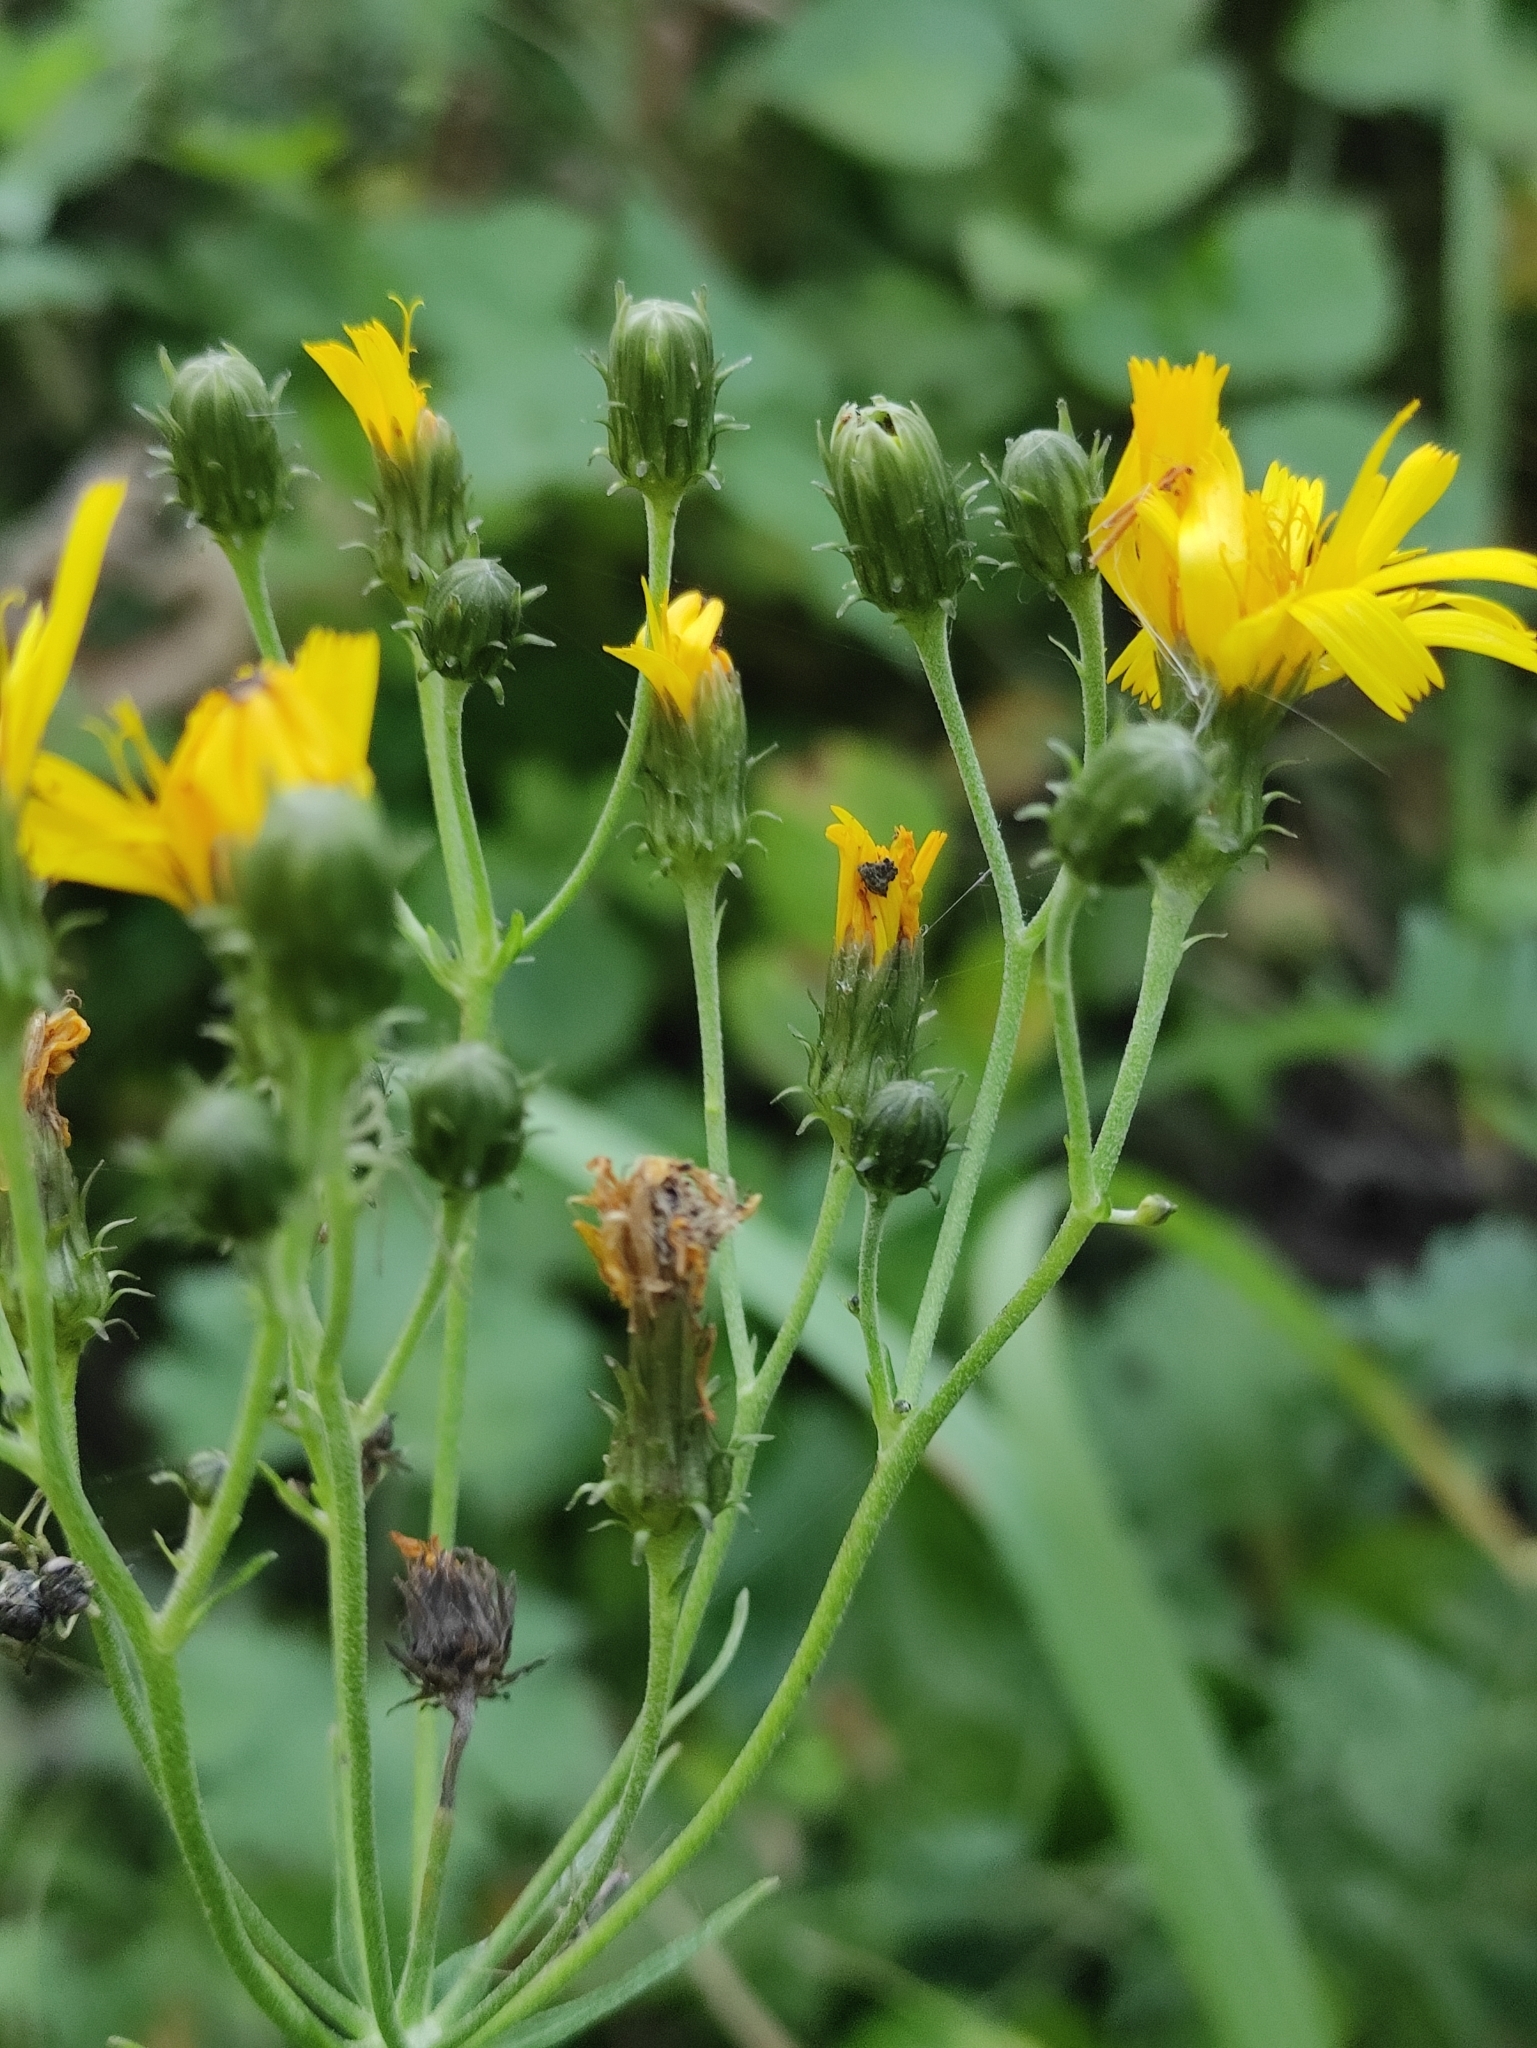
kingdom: Plantae
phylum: Tracheophyta
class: Magnoliopsida
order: Asterales
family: Asteraceae
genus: Hieracium
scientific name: Hieracium umbellatum
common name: Northern hawkweed
